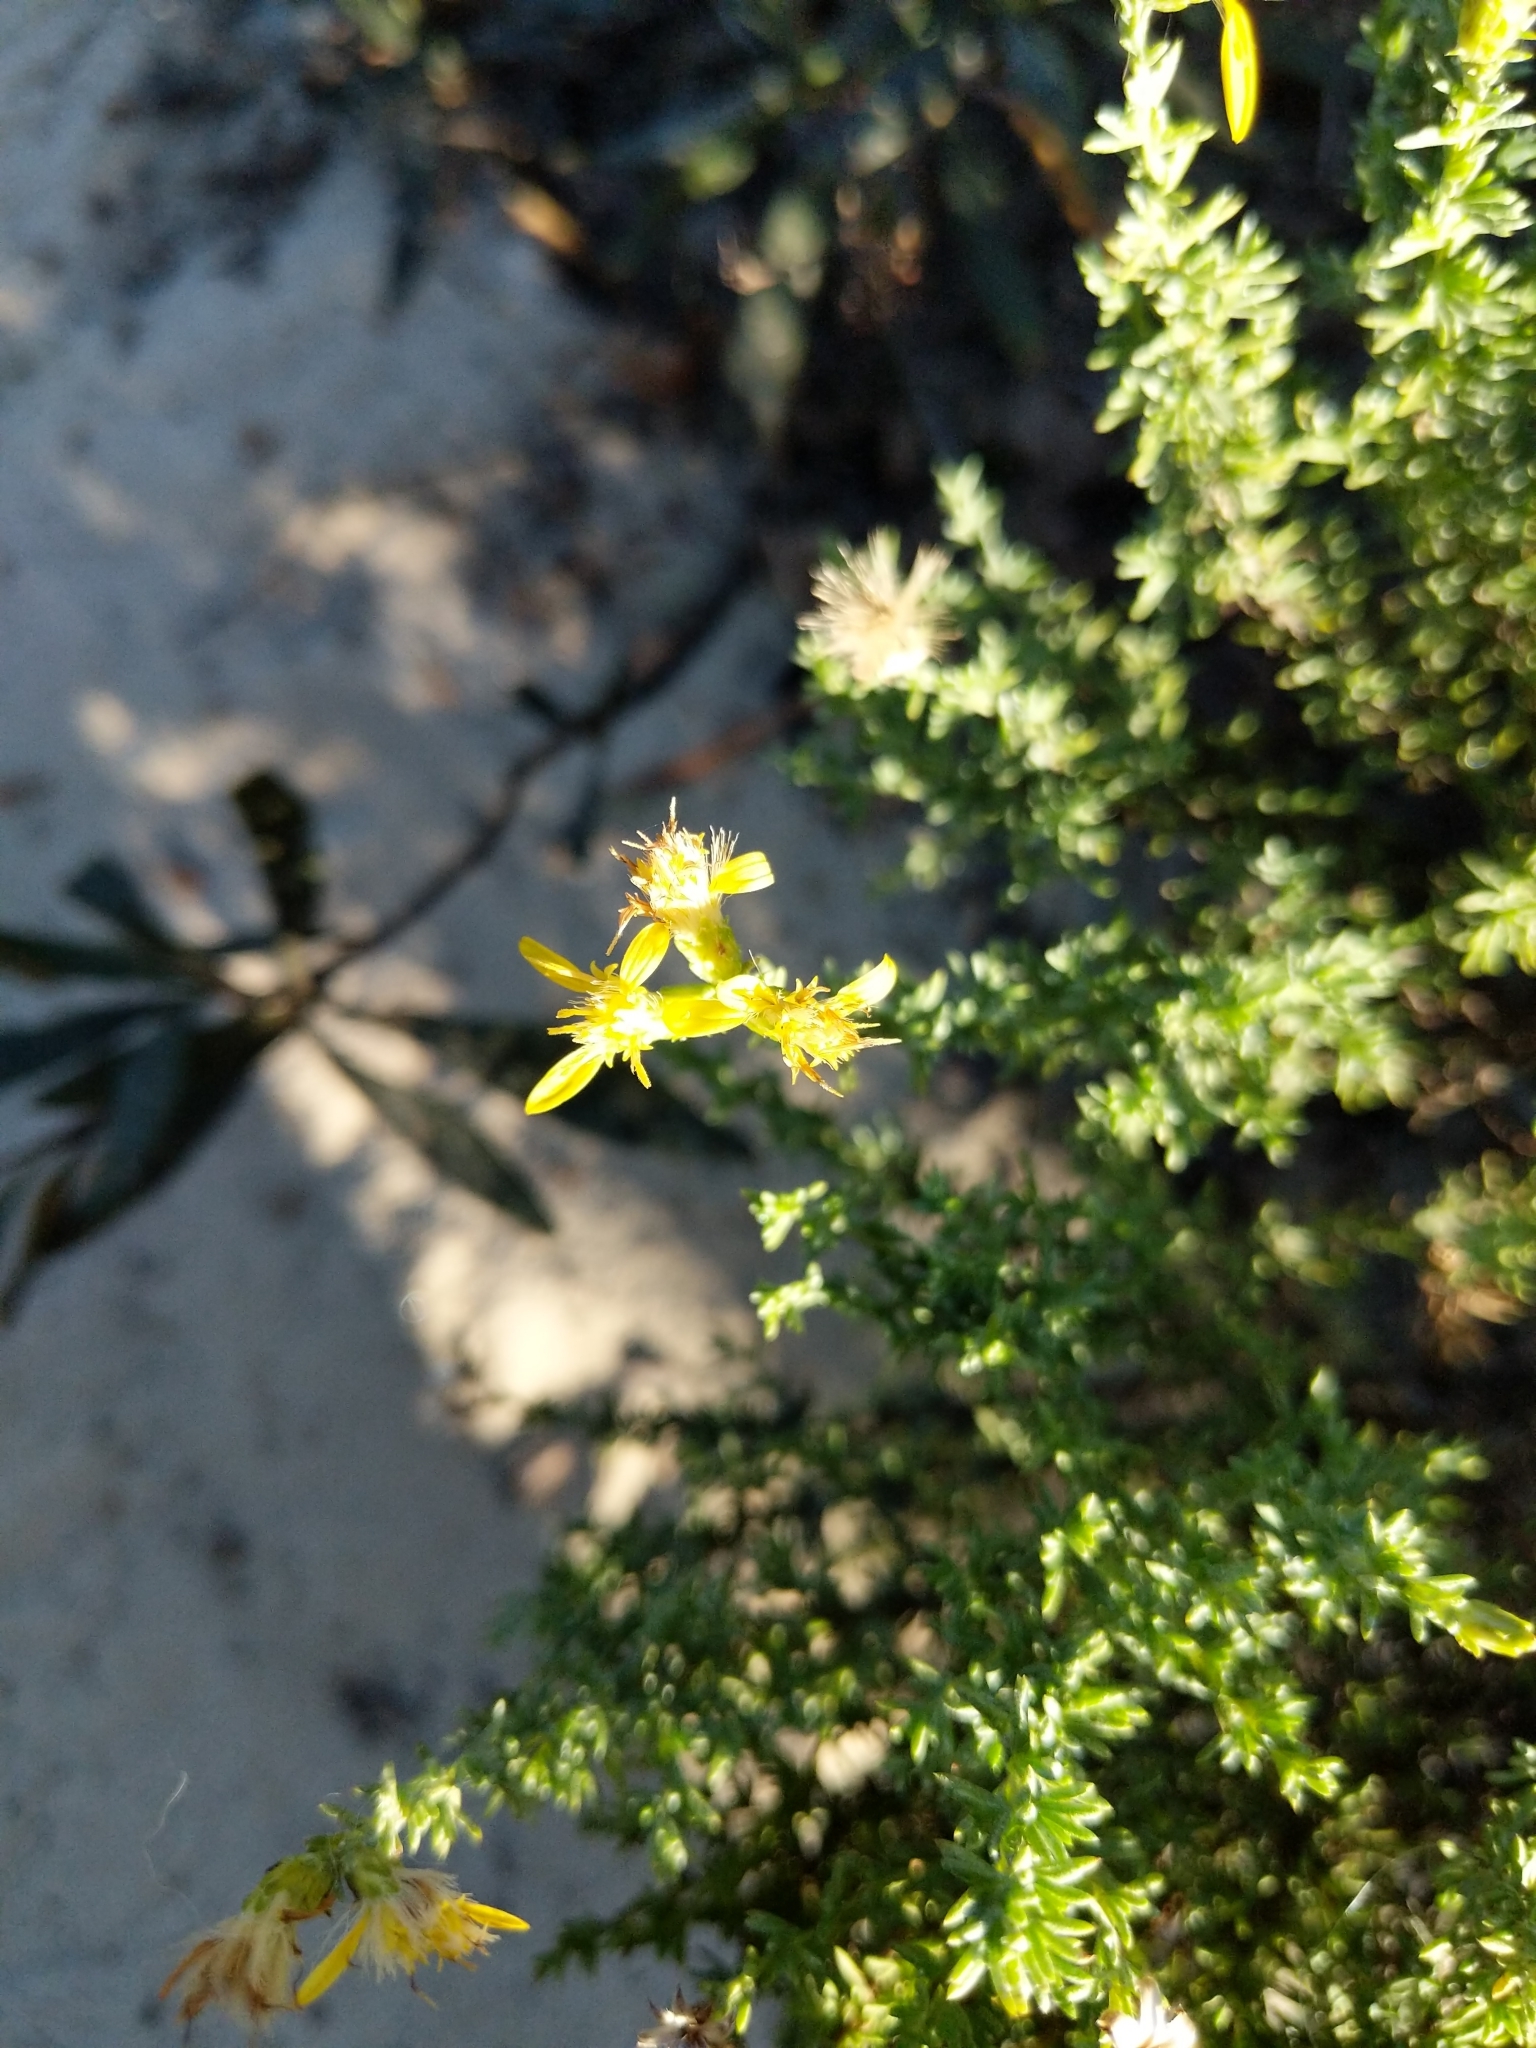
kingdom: Plantae
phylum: Tracheophyta
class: Magnoliopsida
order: Asterales
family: Asteraceae
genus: Ericameria
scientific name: Ericameria ericoides
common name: California goldenbush
